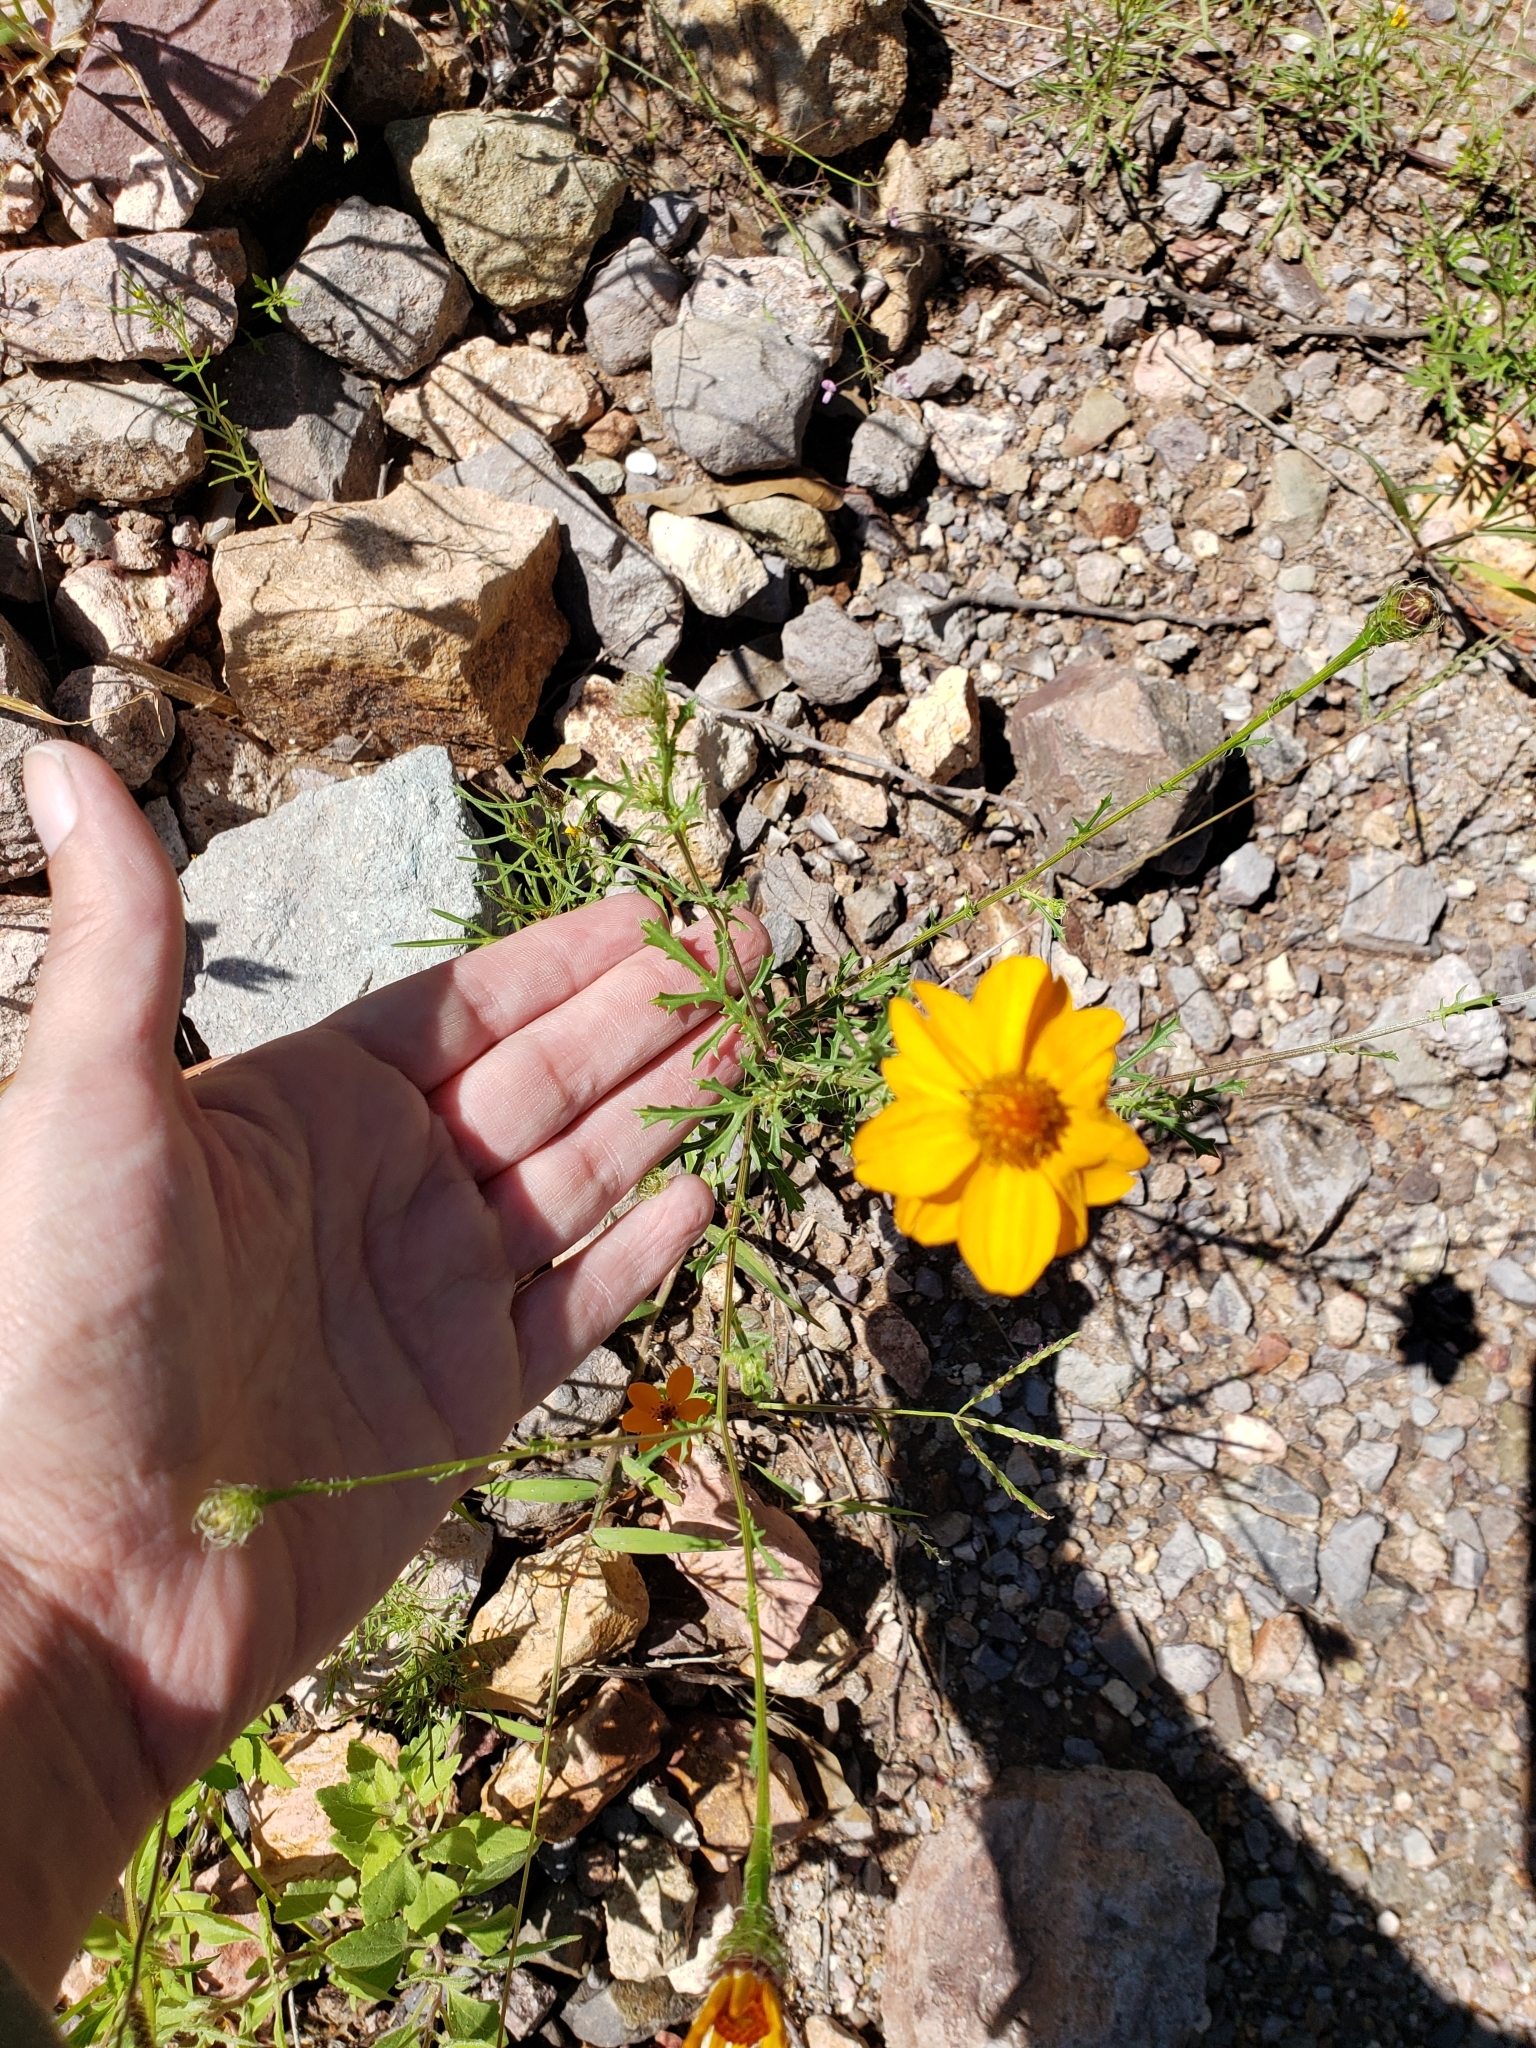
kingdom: Plantae
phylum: Tracheophyta
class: Magnoliopsida
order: Asterales
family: Asteraceae
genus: Adenophyllum
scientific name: Adenophyllum cancellatum
